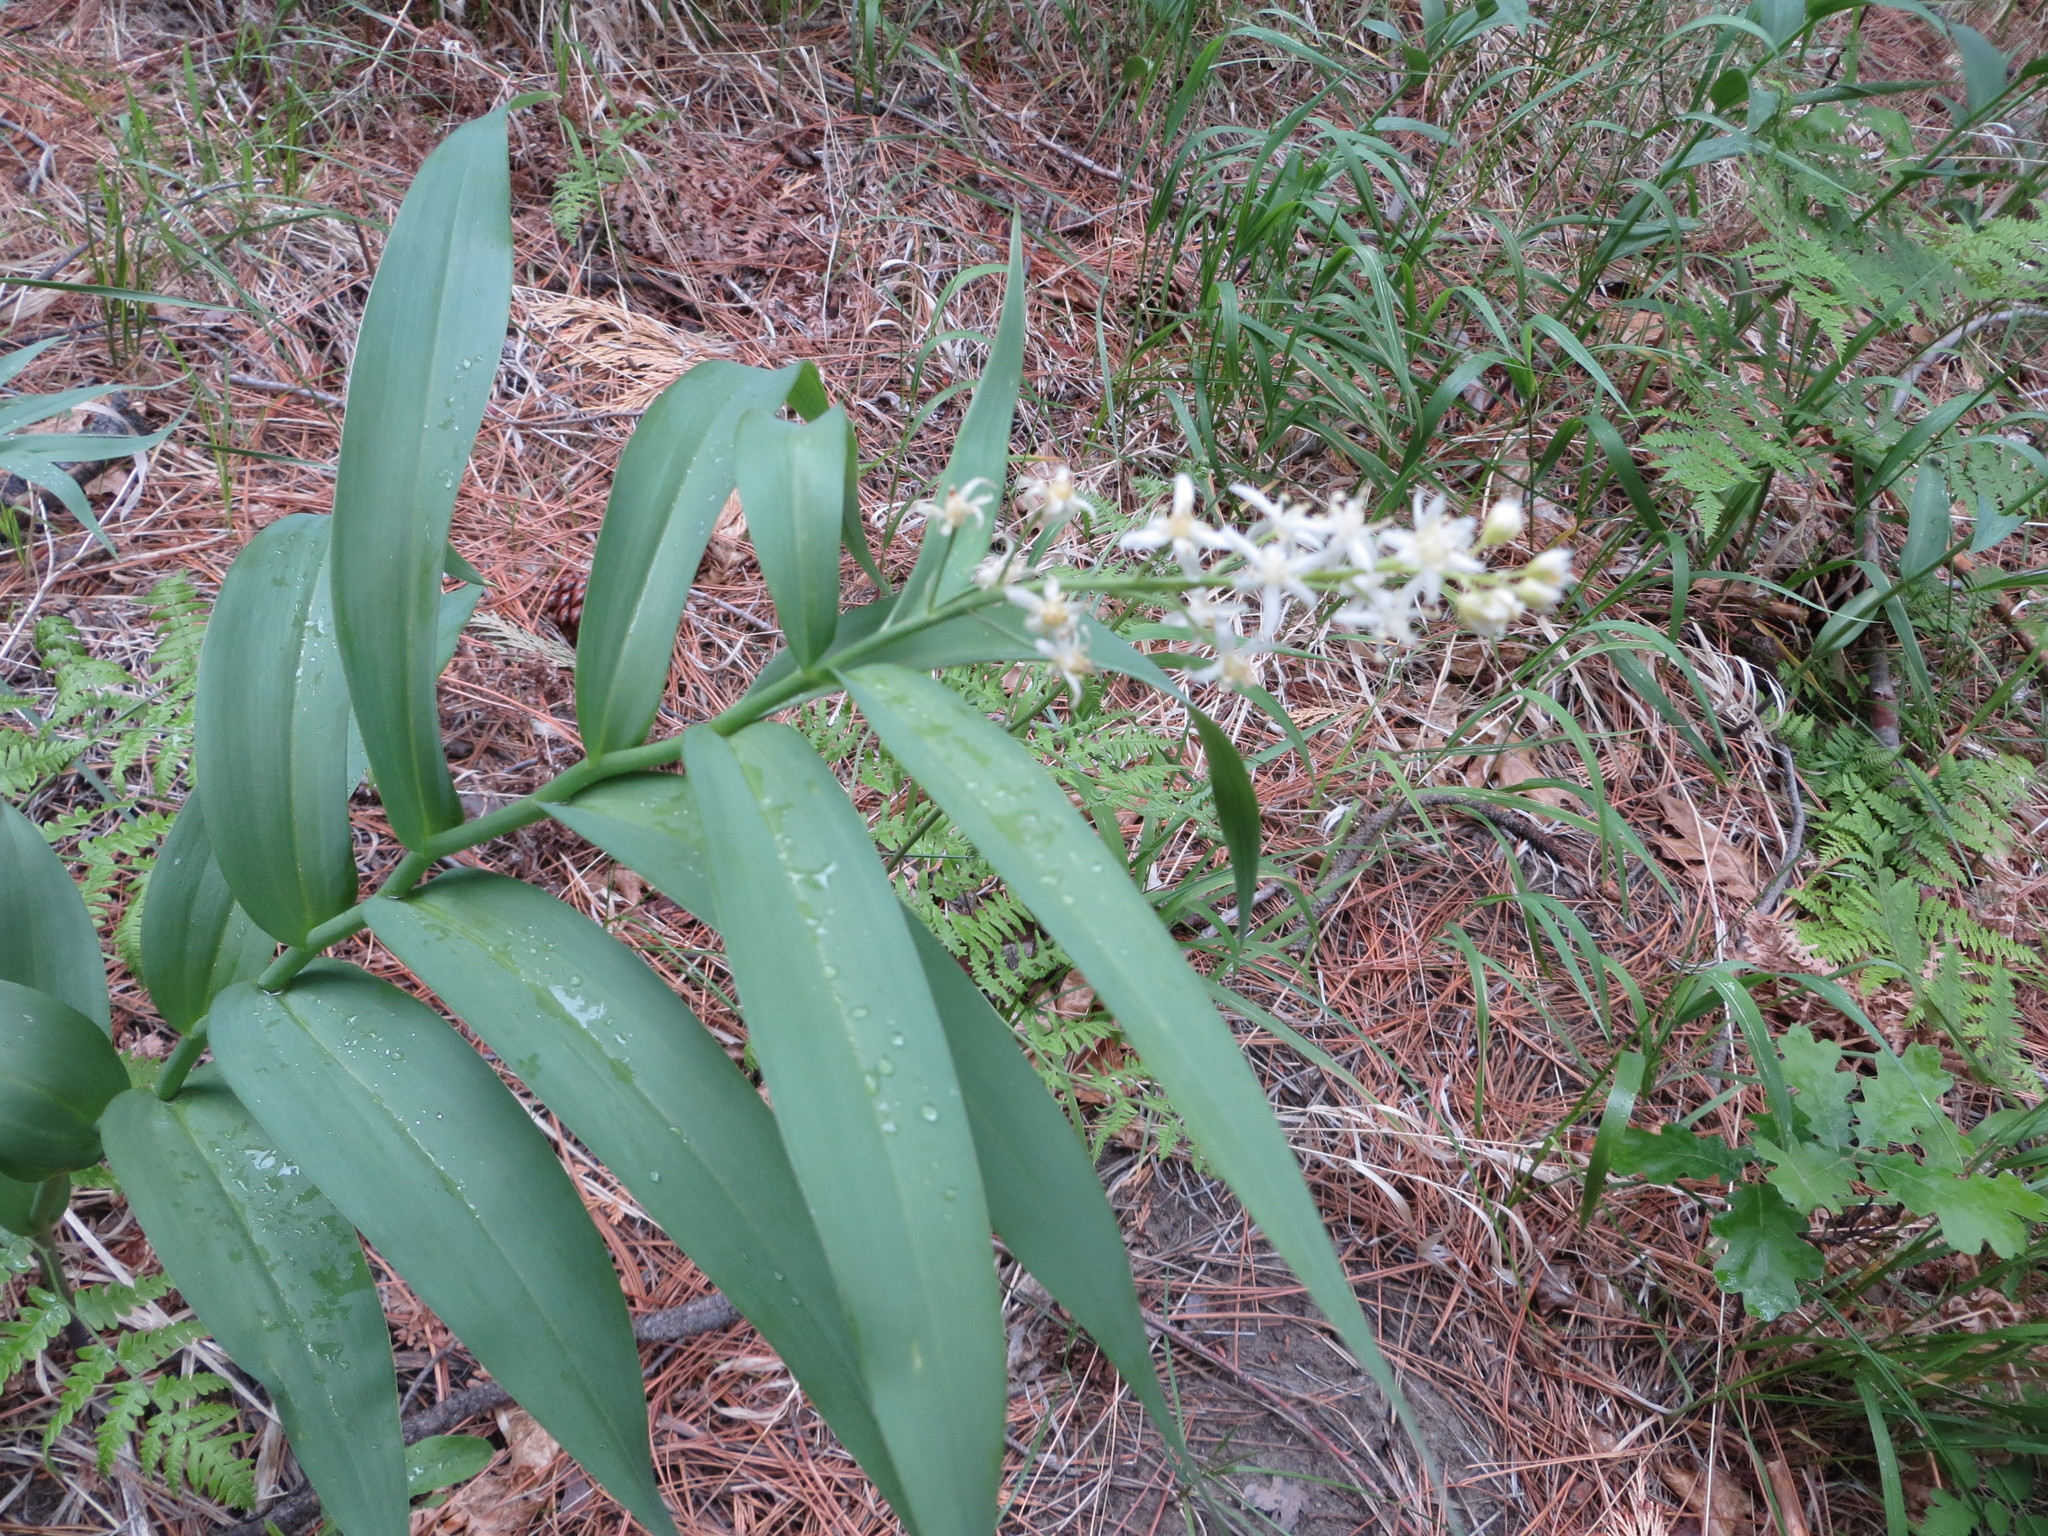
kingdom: Plantae
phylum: Tracheophyta
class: Liliopsida
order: Asparagales
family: Asparagaceae
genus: Maianthemum
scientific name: Maianthemum stellatum
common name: Little false solomon's seal
